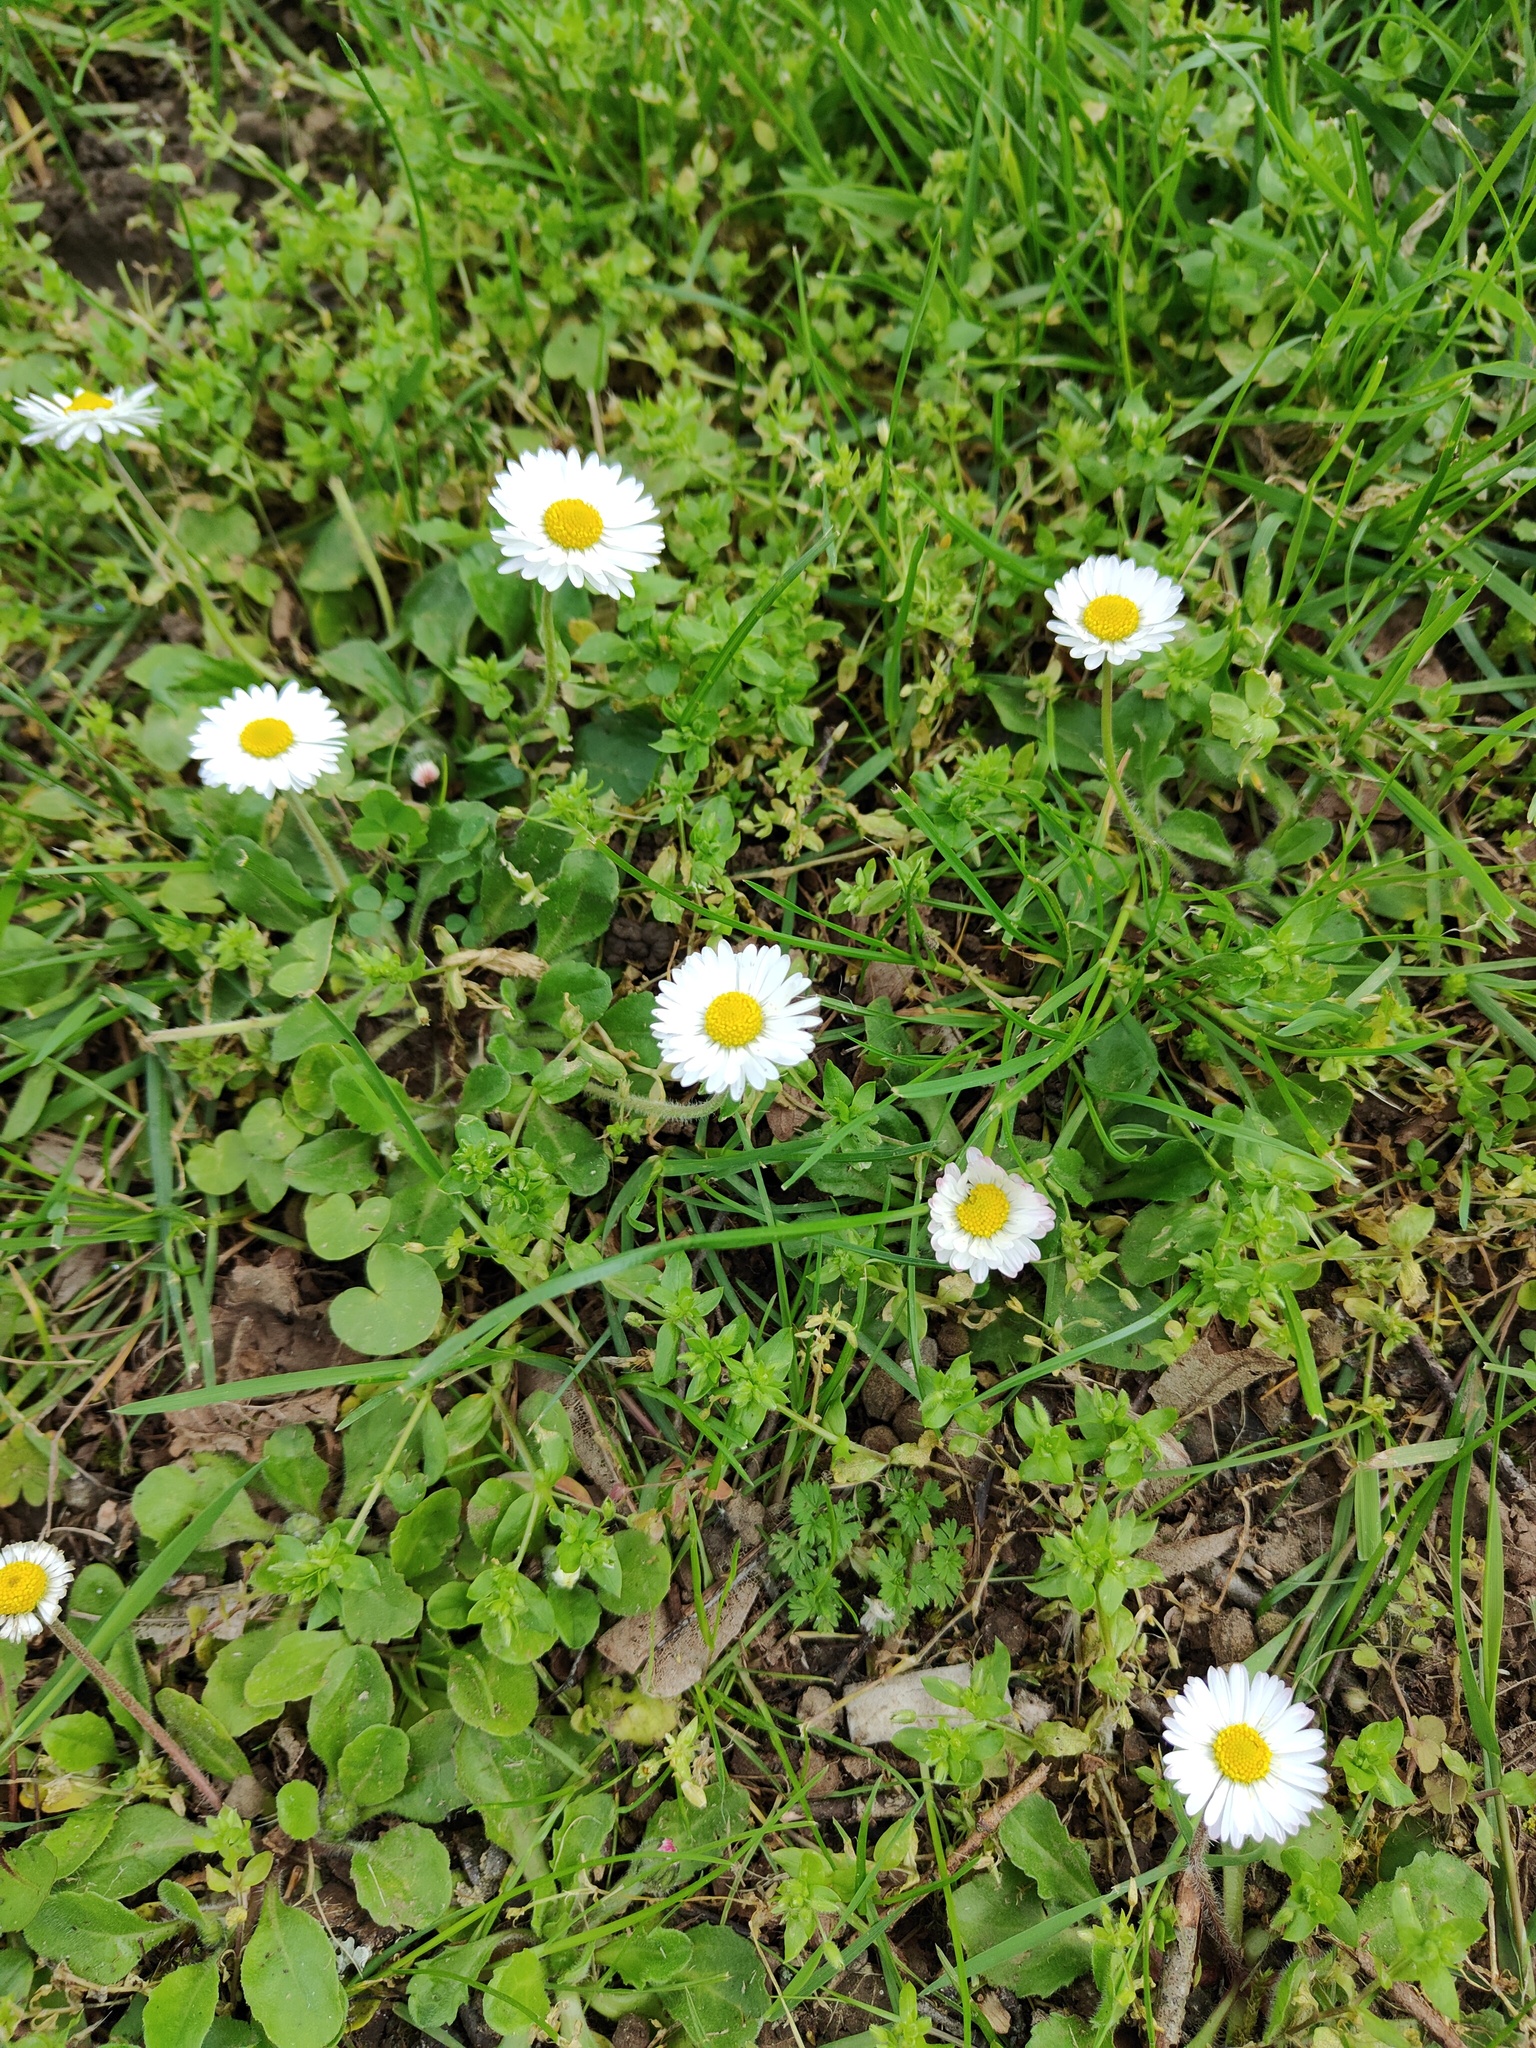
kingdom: Plantae
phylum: Tracheophyta
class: Magnoliopsida
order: Asterales
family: Asteraceae
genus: Bellis
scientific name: Bellis perennis
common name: Lawndaisy
